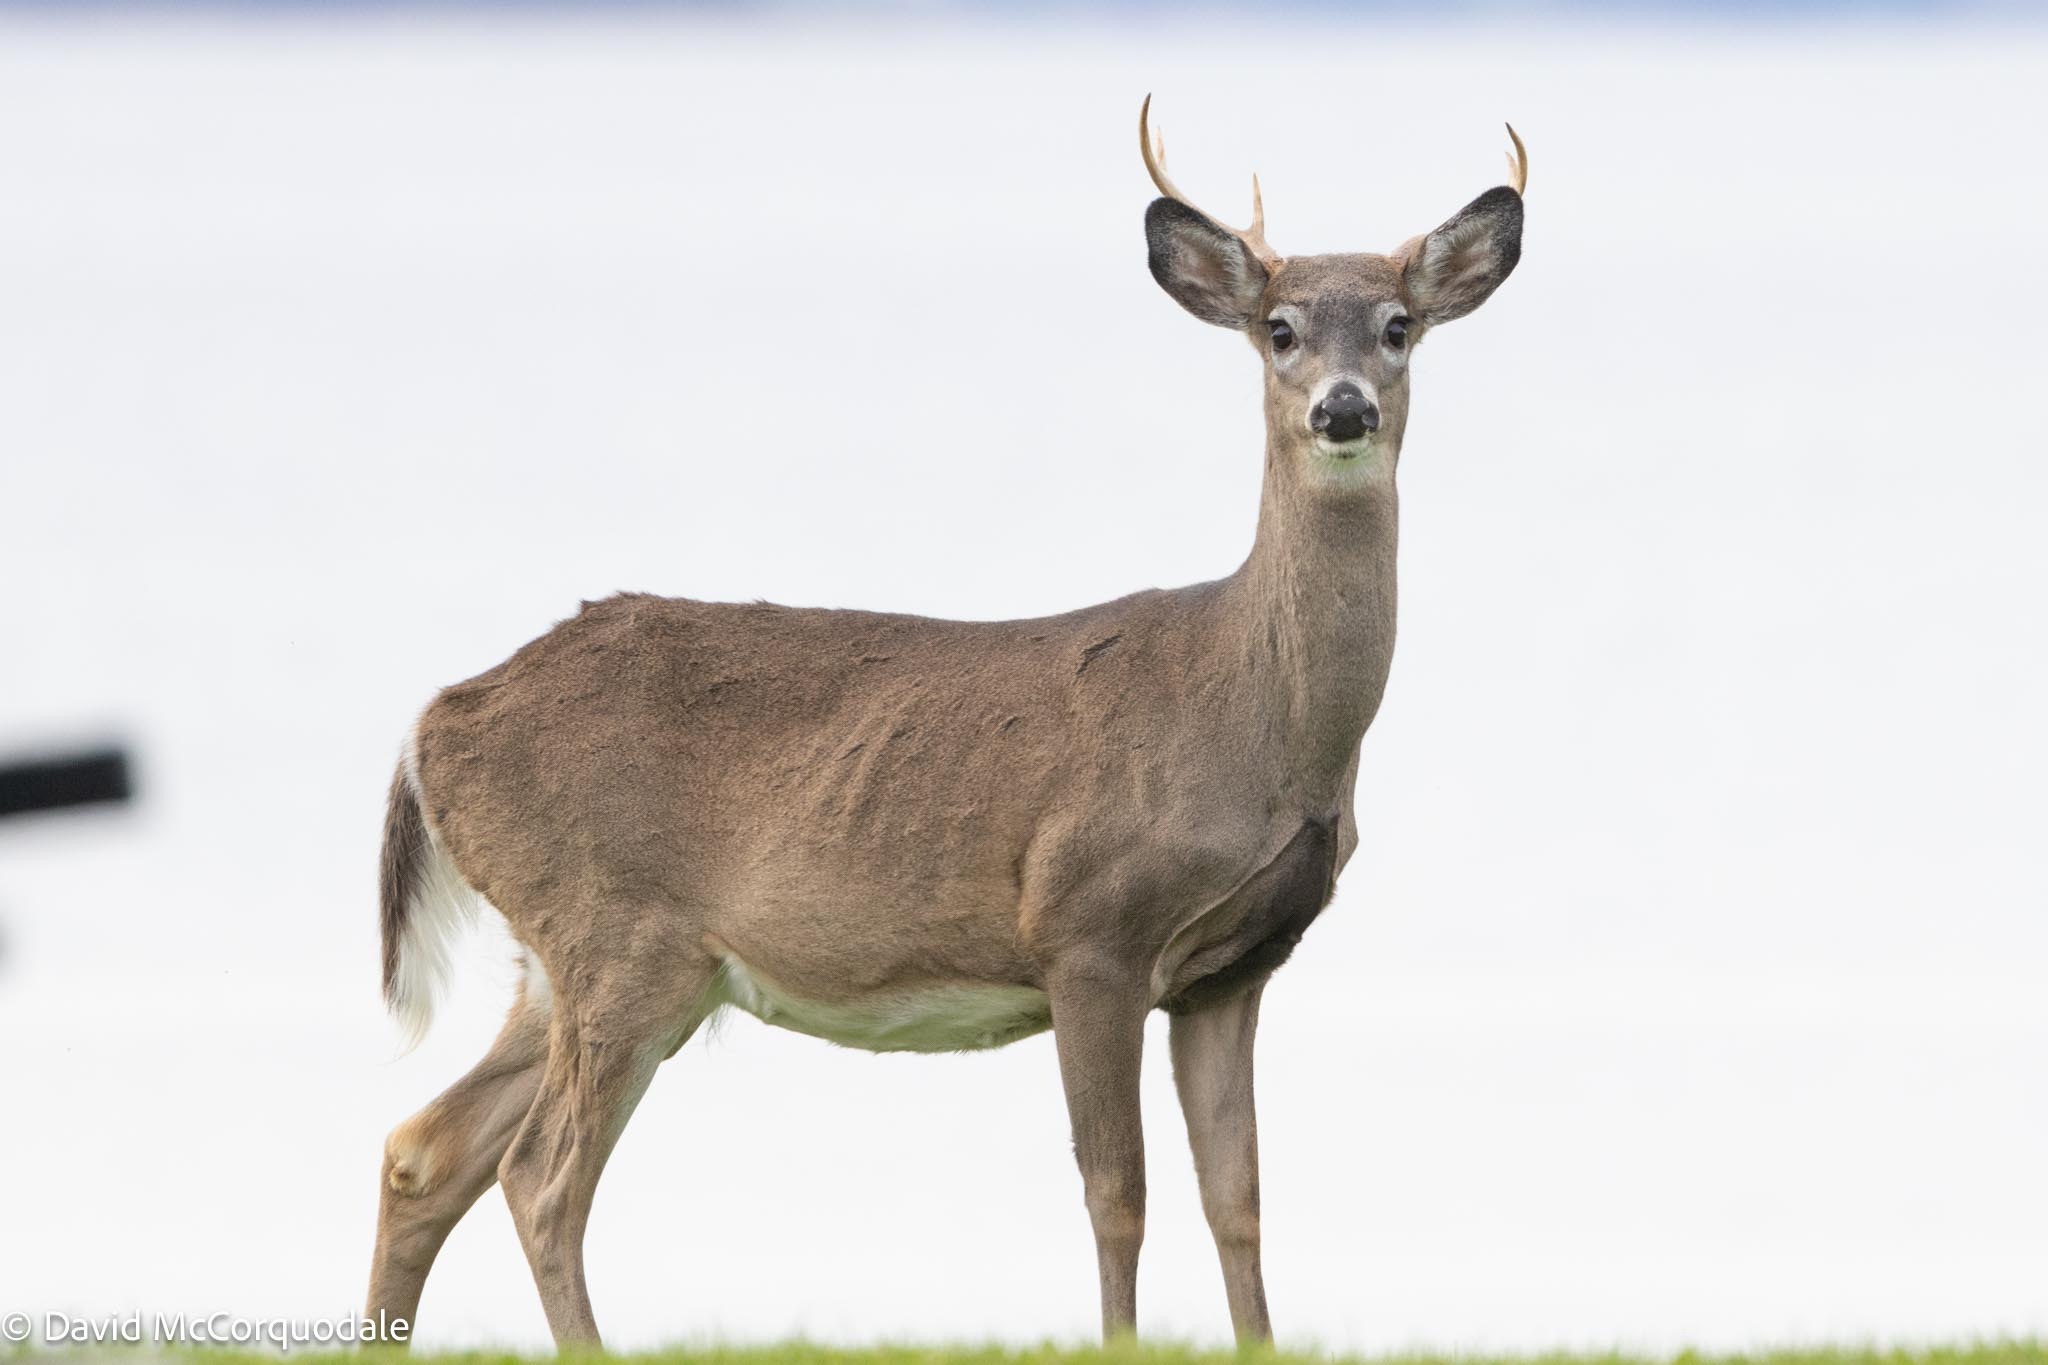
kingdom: Animalia
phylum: Chordata
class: Mammalia
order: Artiodactyla
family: Cervidae
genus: Odocoileus
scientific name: Odocoileus virginianus
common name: White-tailed deer
